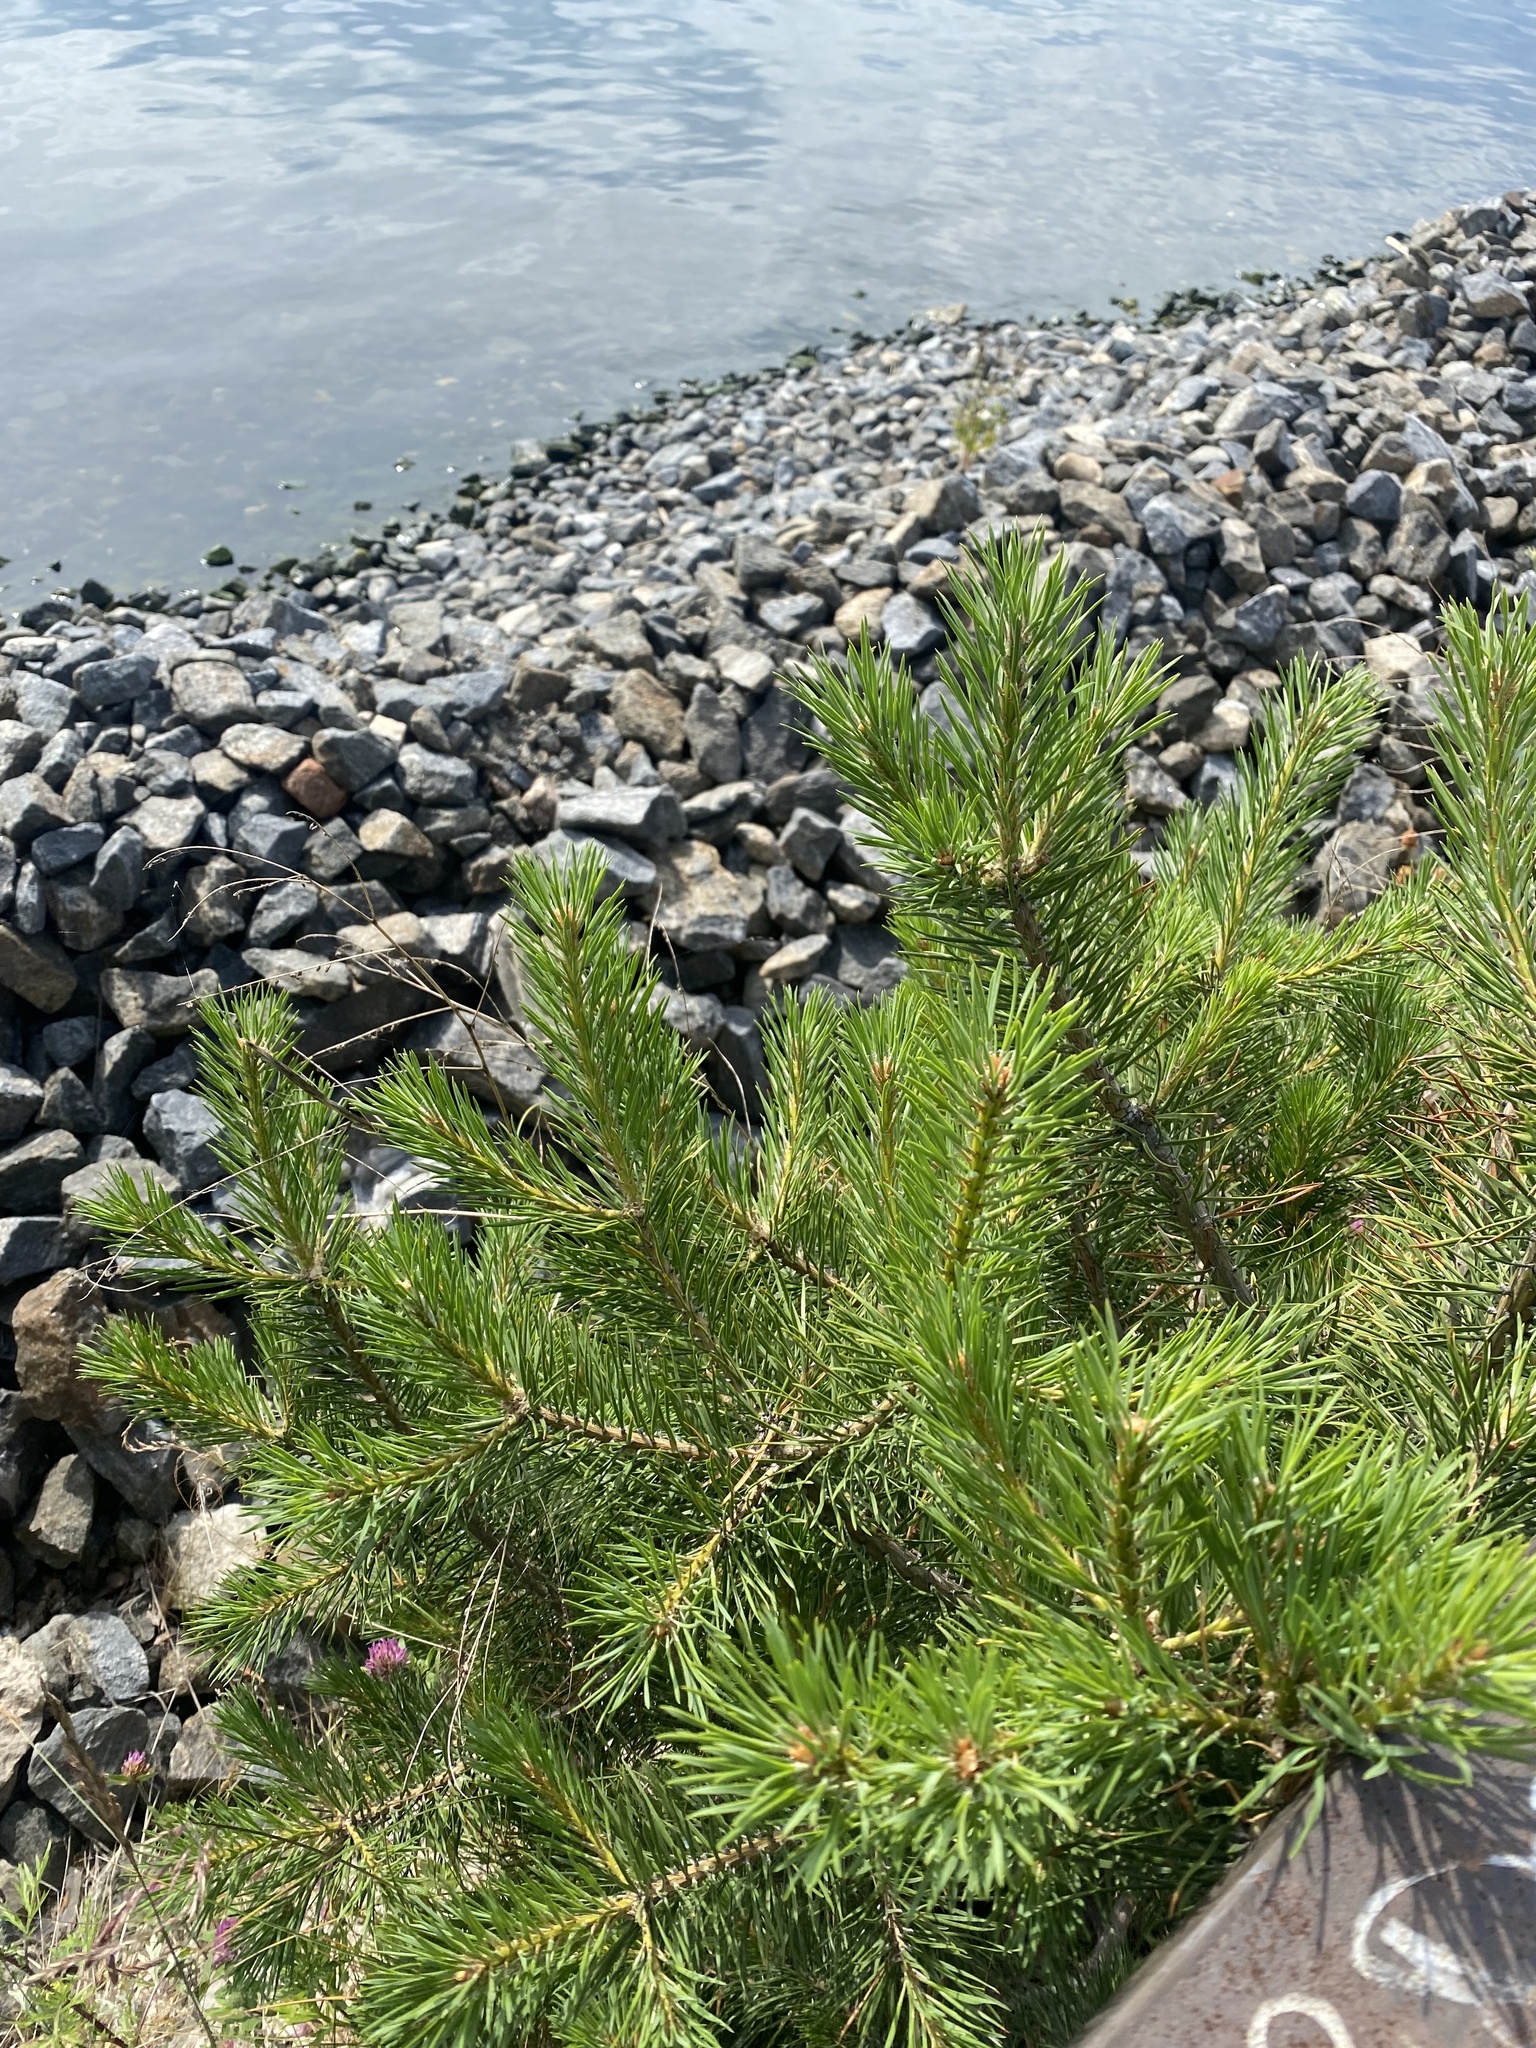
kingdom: Plantae
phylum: Tracheophyta
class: Pinopsida
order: Pinales
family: Pinaceae
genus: Pinus
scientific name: Pinus sylvestris
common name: Scots pine
